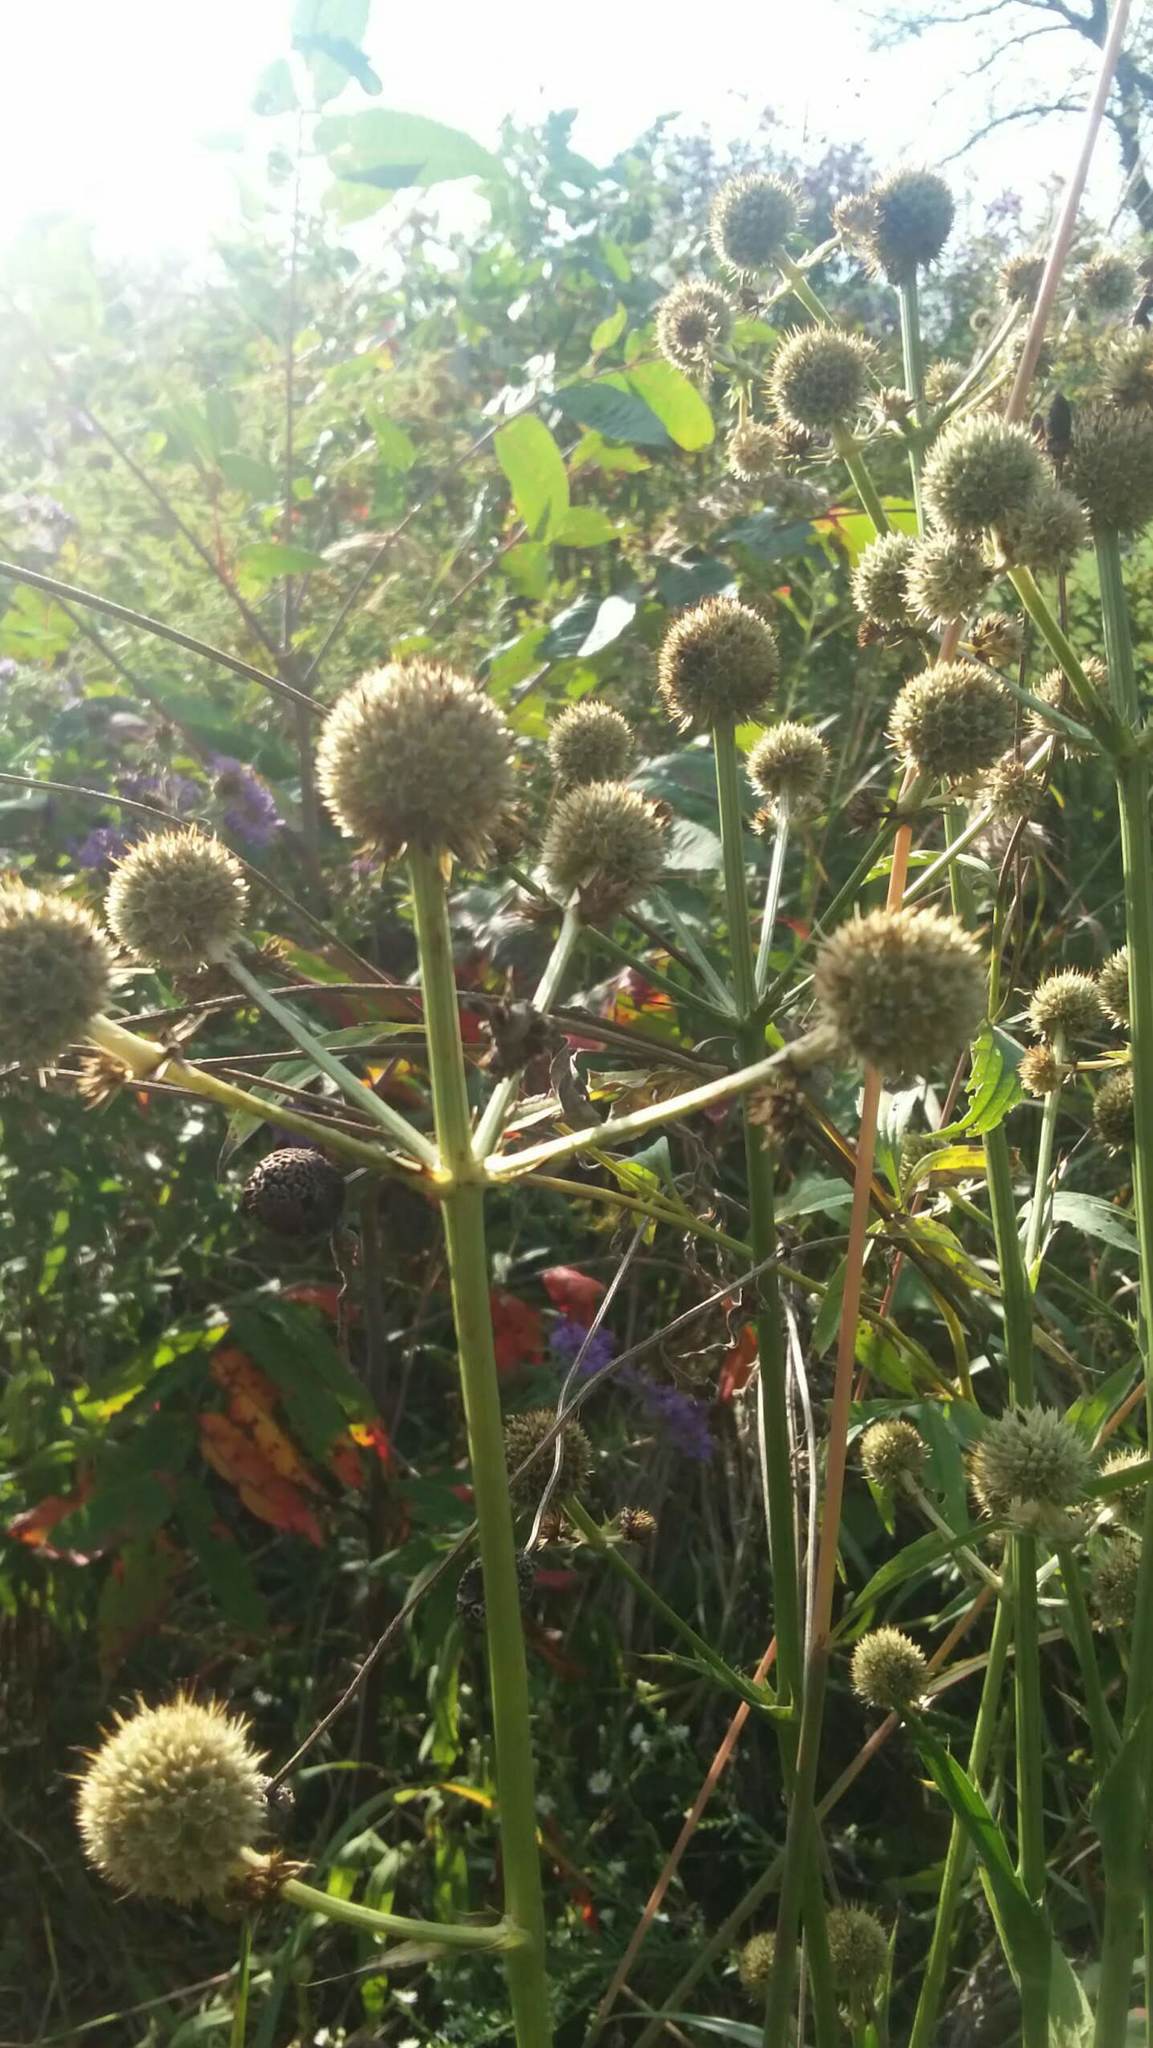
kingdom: Plantae
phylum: Tracheophyta
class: Magnoliopsida
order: Apiales
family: Apiaceae
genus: Eryngium
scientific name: Eryngium yuccifolium
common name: Button eryngo
